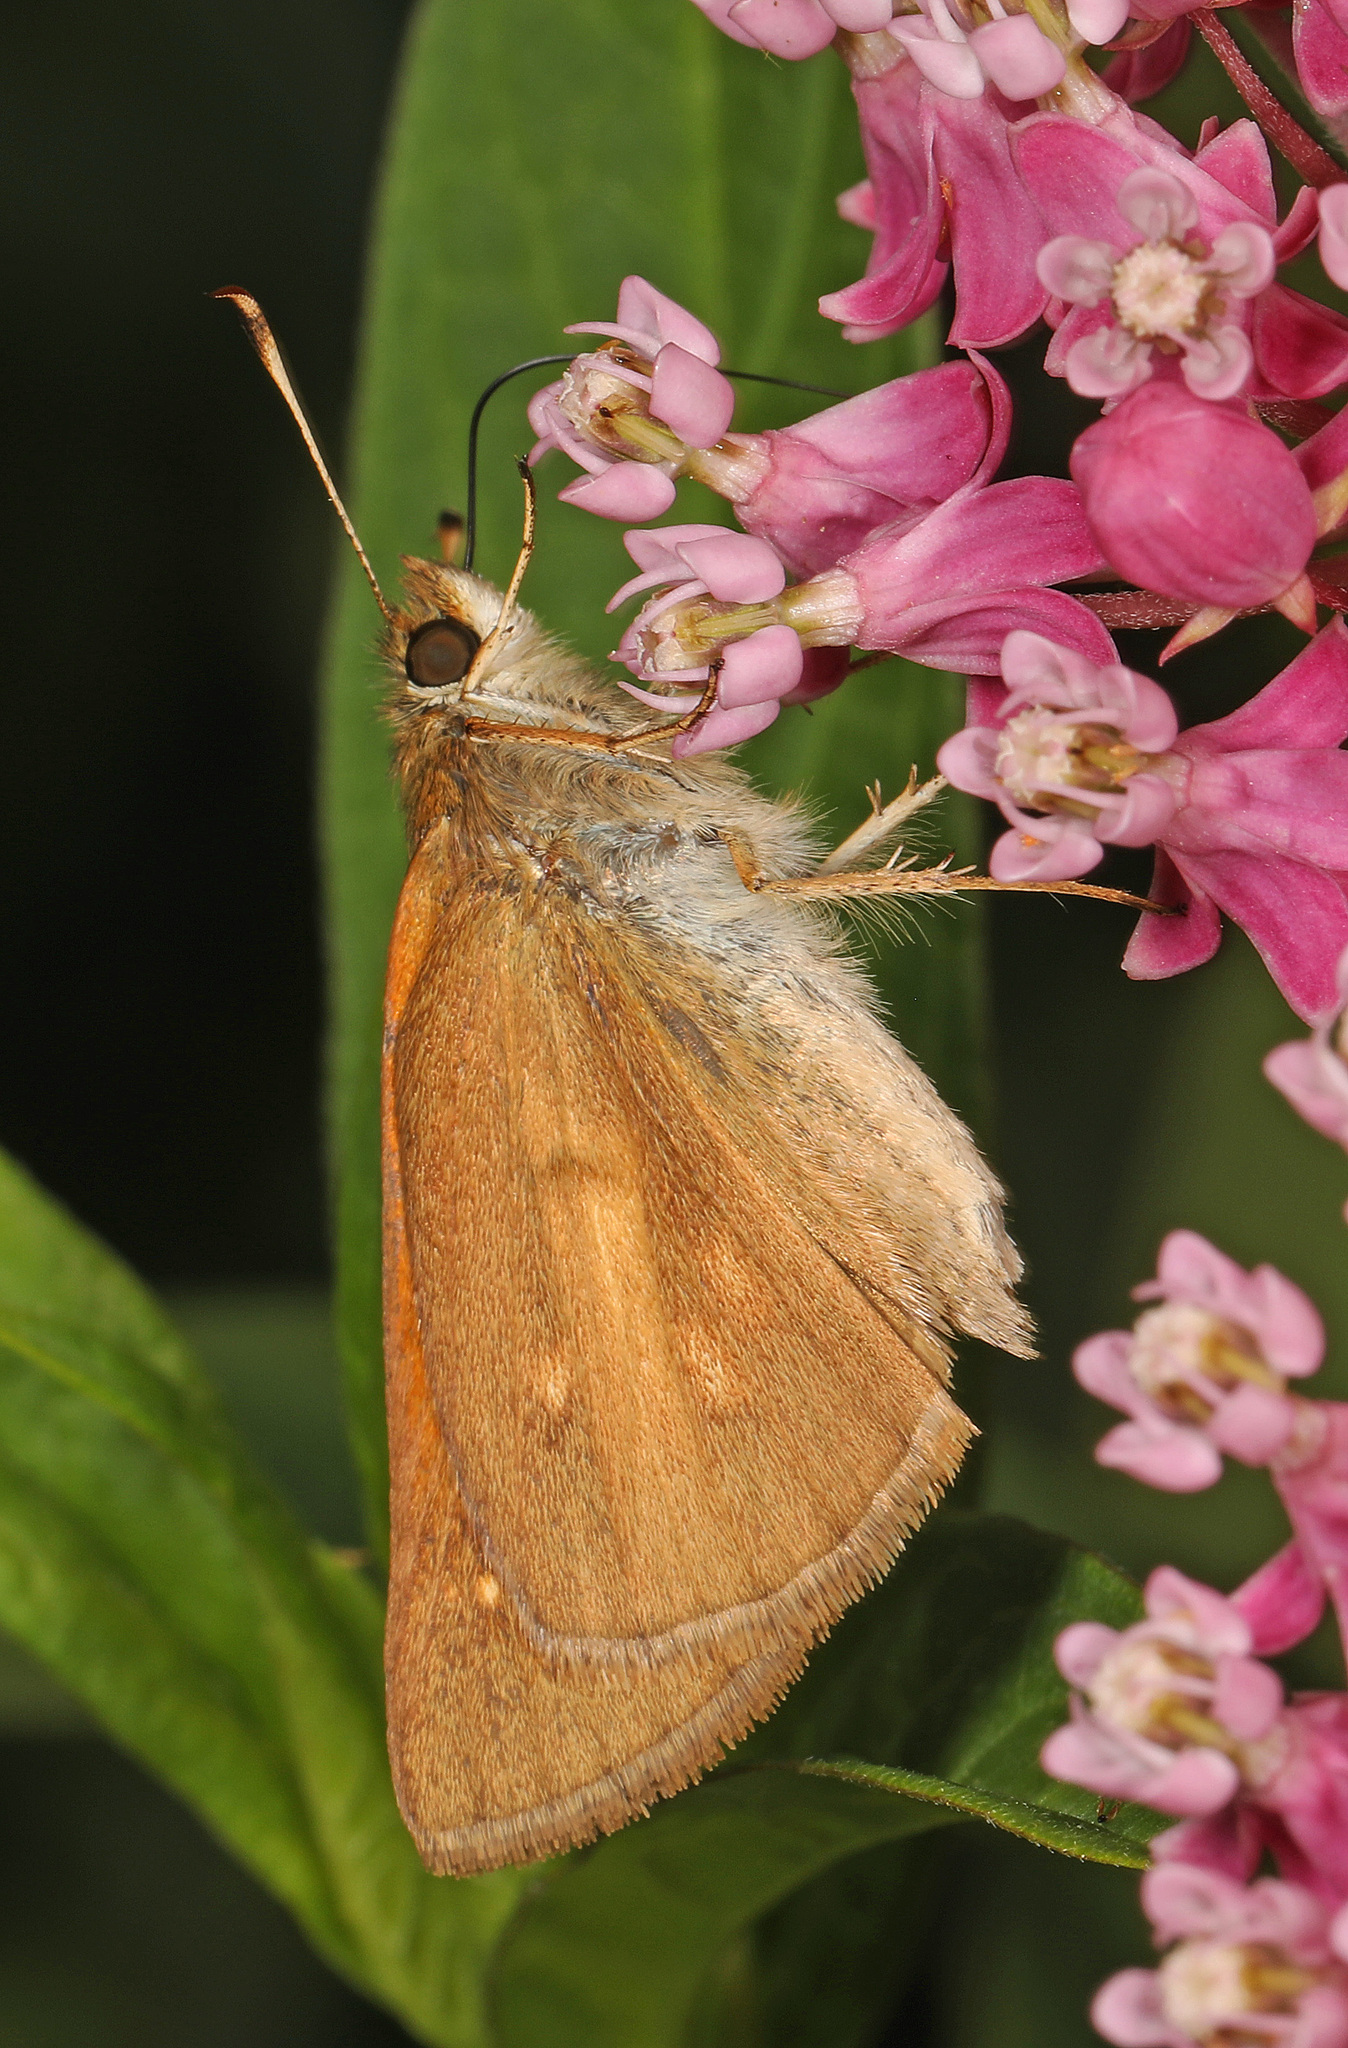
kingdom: Animalia
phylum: Arthropoda
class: Insecta
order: Lepidoptera
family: Hesperiidae
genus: Poanes
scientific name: Poanes viator
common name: Broad-winged skipper
